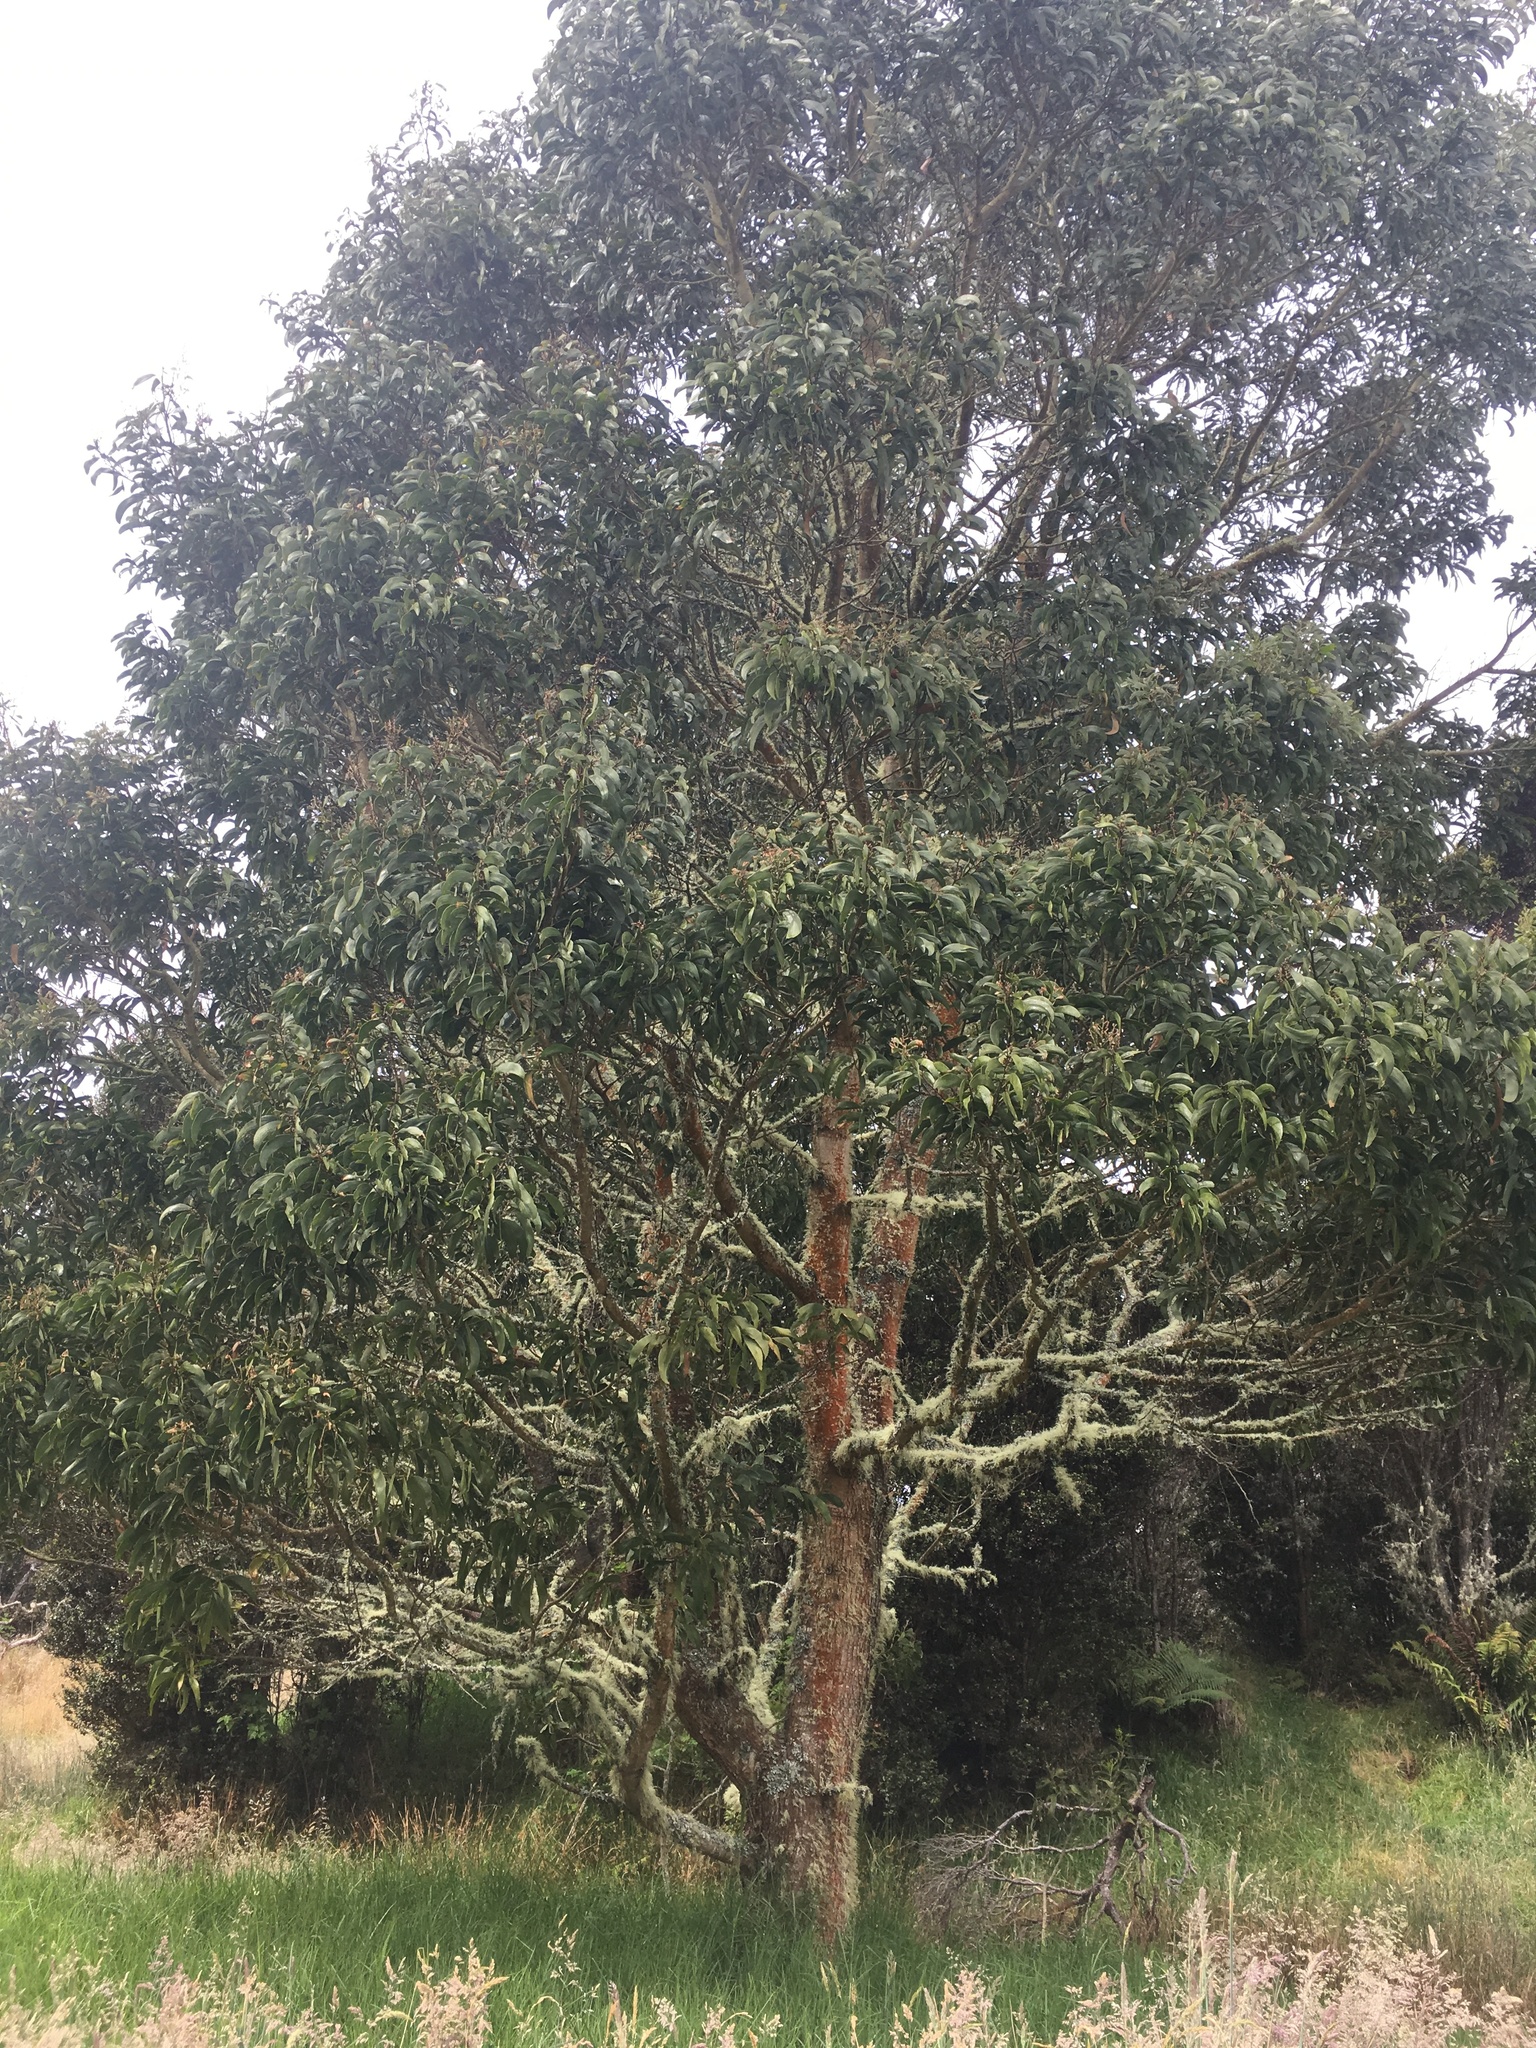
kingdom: Plantae
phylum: Tracheophyta
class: Magnoliopsida
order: Fabales
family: Fabaceae
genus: Acacia
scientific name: Acacia koa
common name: Gray koa
